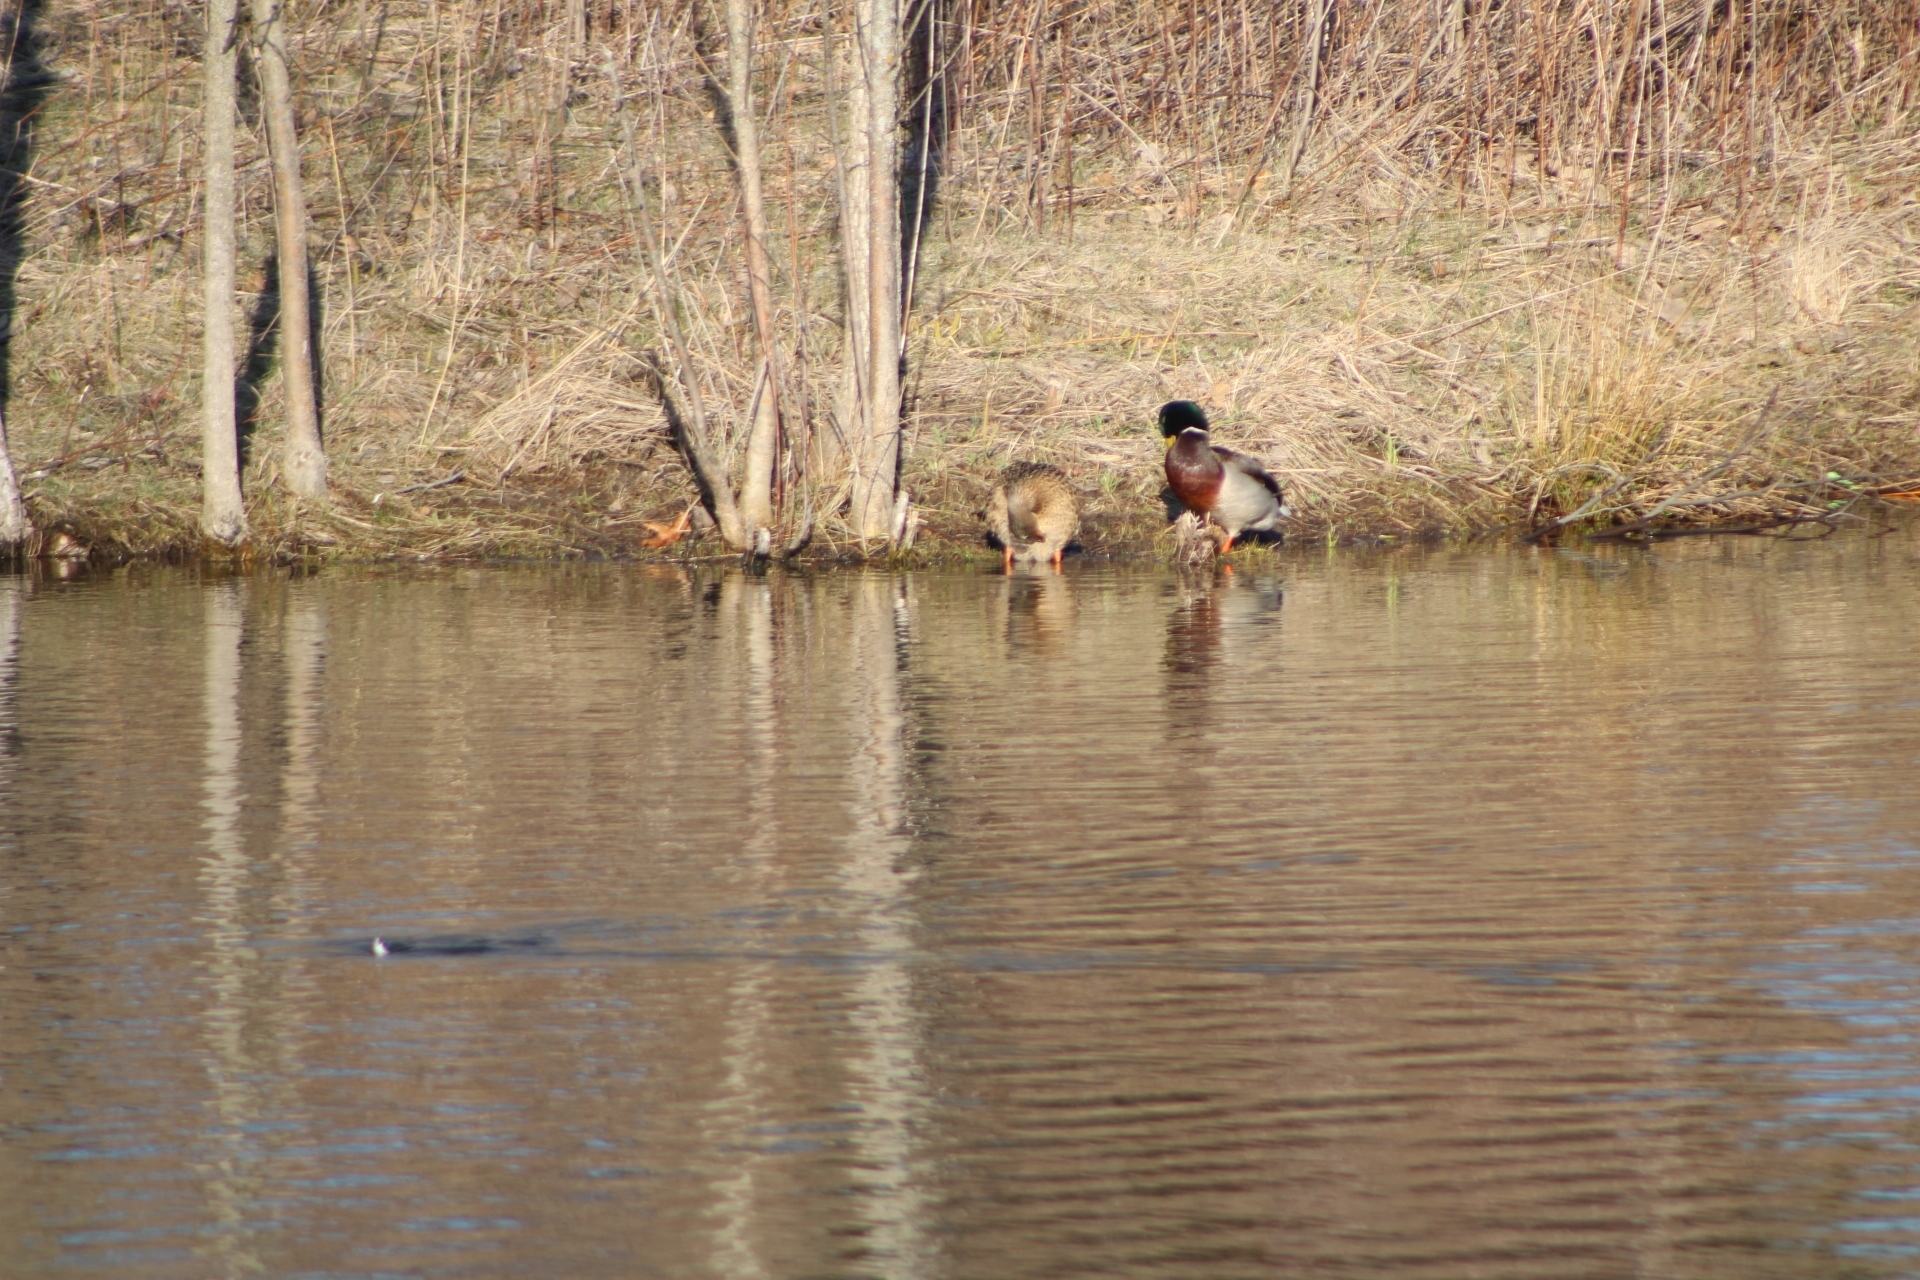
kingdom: Animalia
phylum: Chordata
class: Aves
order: Anseriformes
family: Anatidae
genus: Anas
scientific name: Anas platyrhynchos
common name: Mallard
